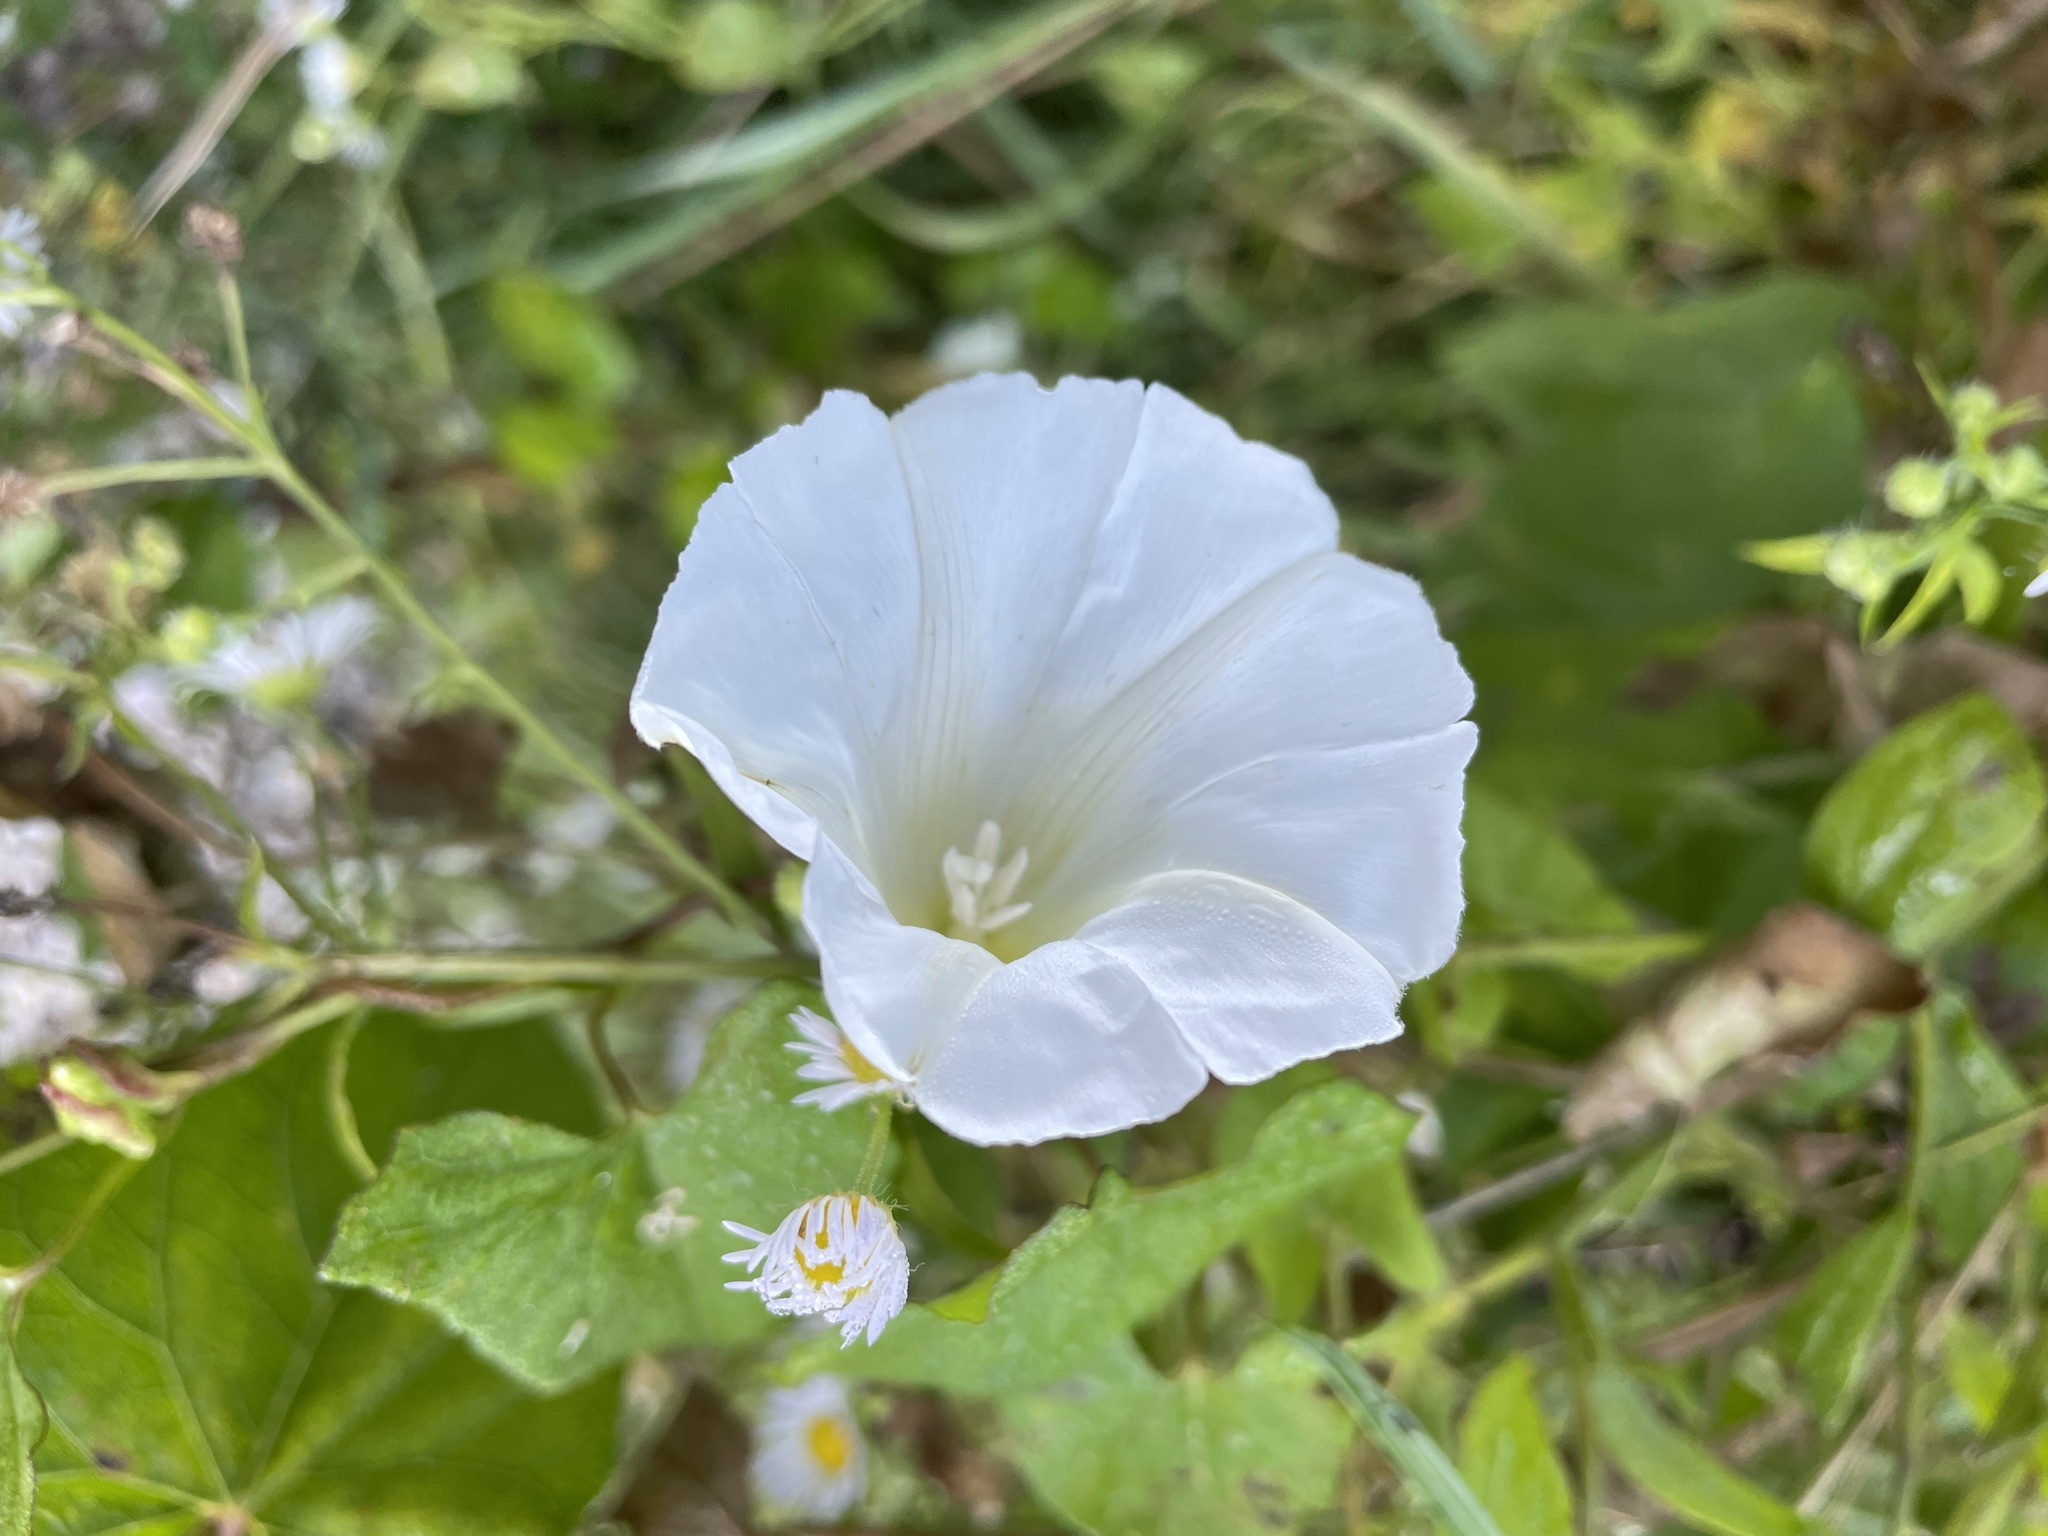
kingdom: Plantae
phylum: Tracheophyta
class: Magnoliopsida
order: Solanales
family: Convolvulaceae
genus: Calystegia
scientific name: Calystegia sepium
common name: Hedge bindweed
